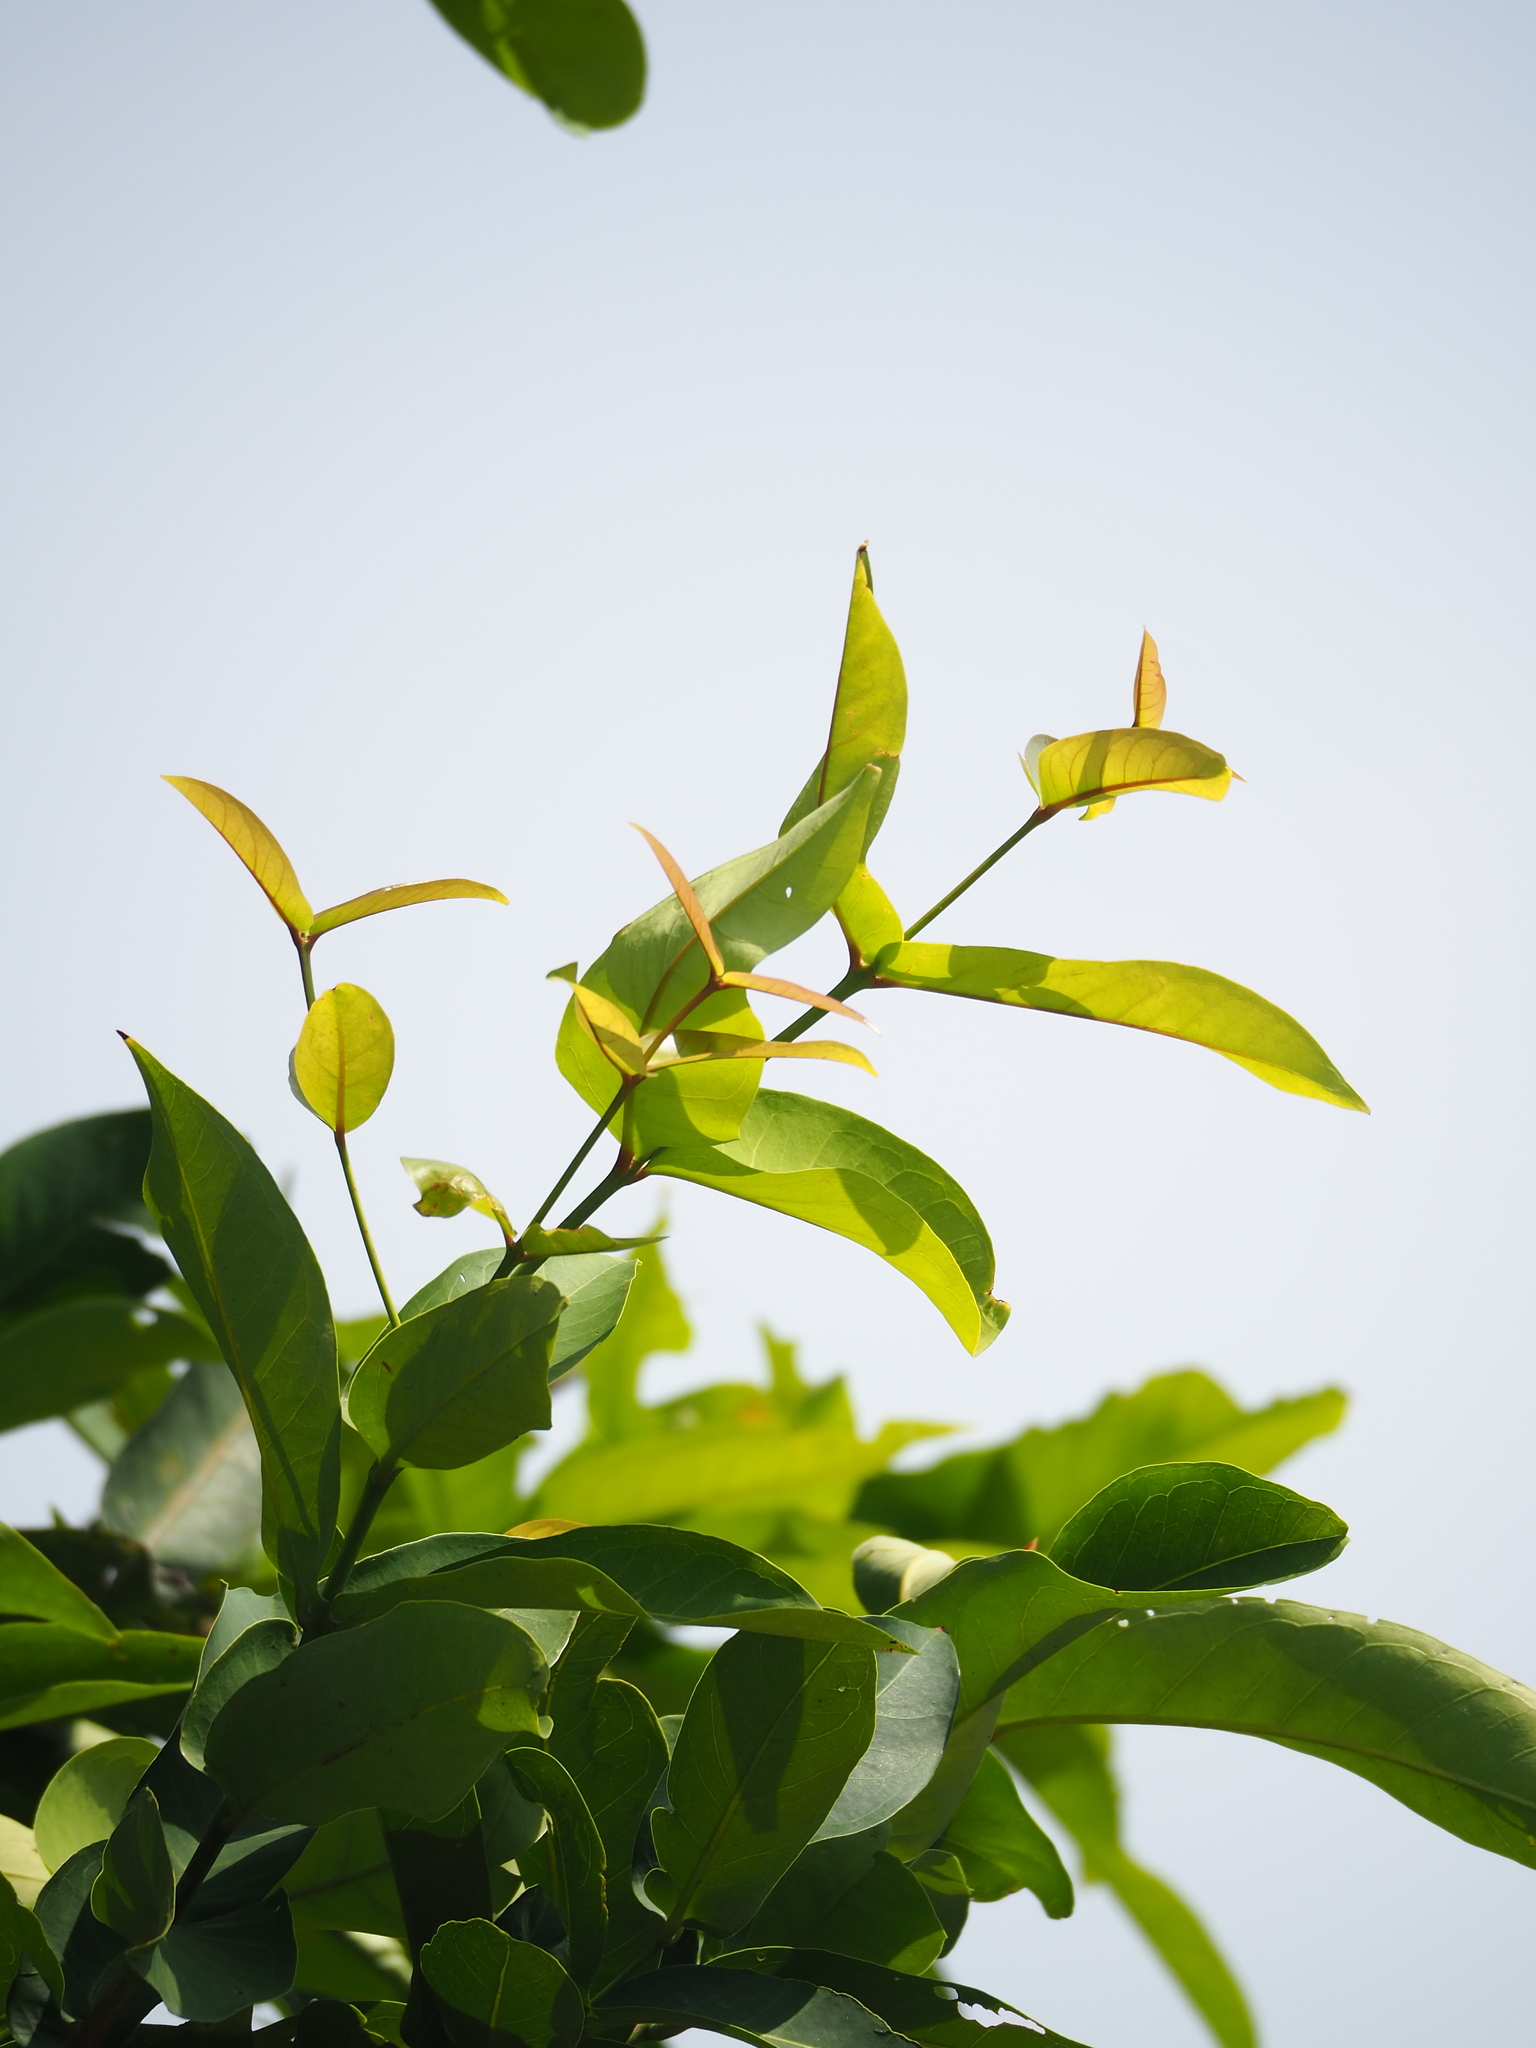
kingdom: Plantae
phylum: Tracheophyta
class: Magnoliopsida
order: Myrtales
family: Myrtaceae
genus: Syzygium
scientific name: Syzygium samarangense
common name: Semarang rose-apple
